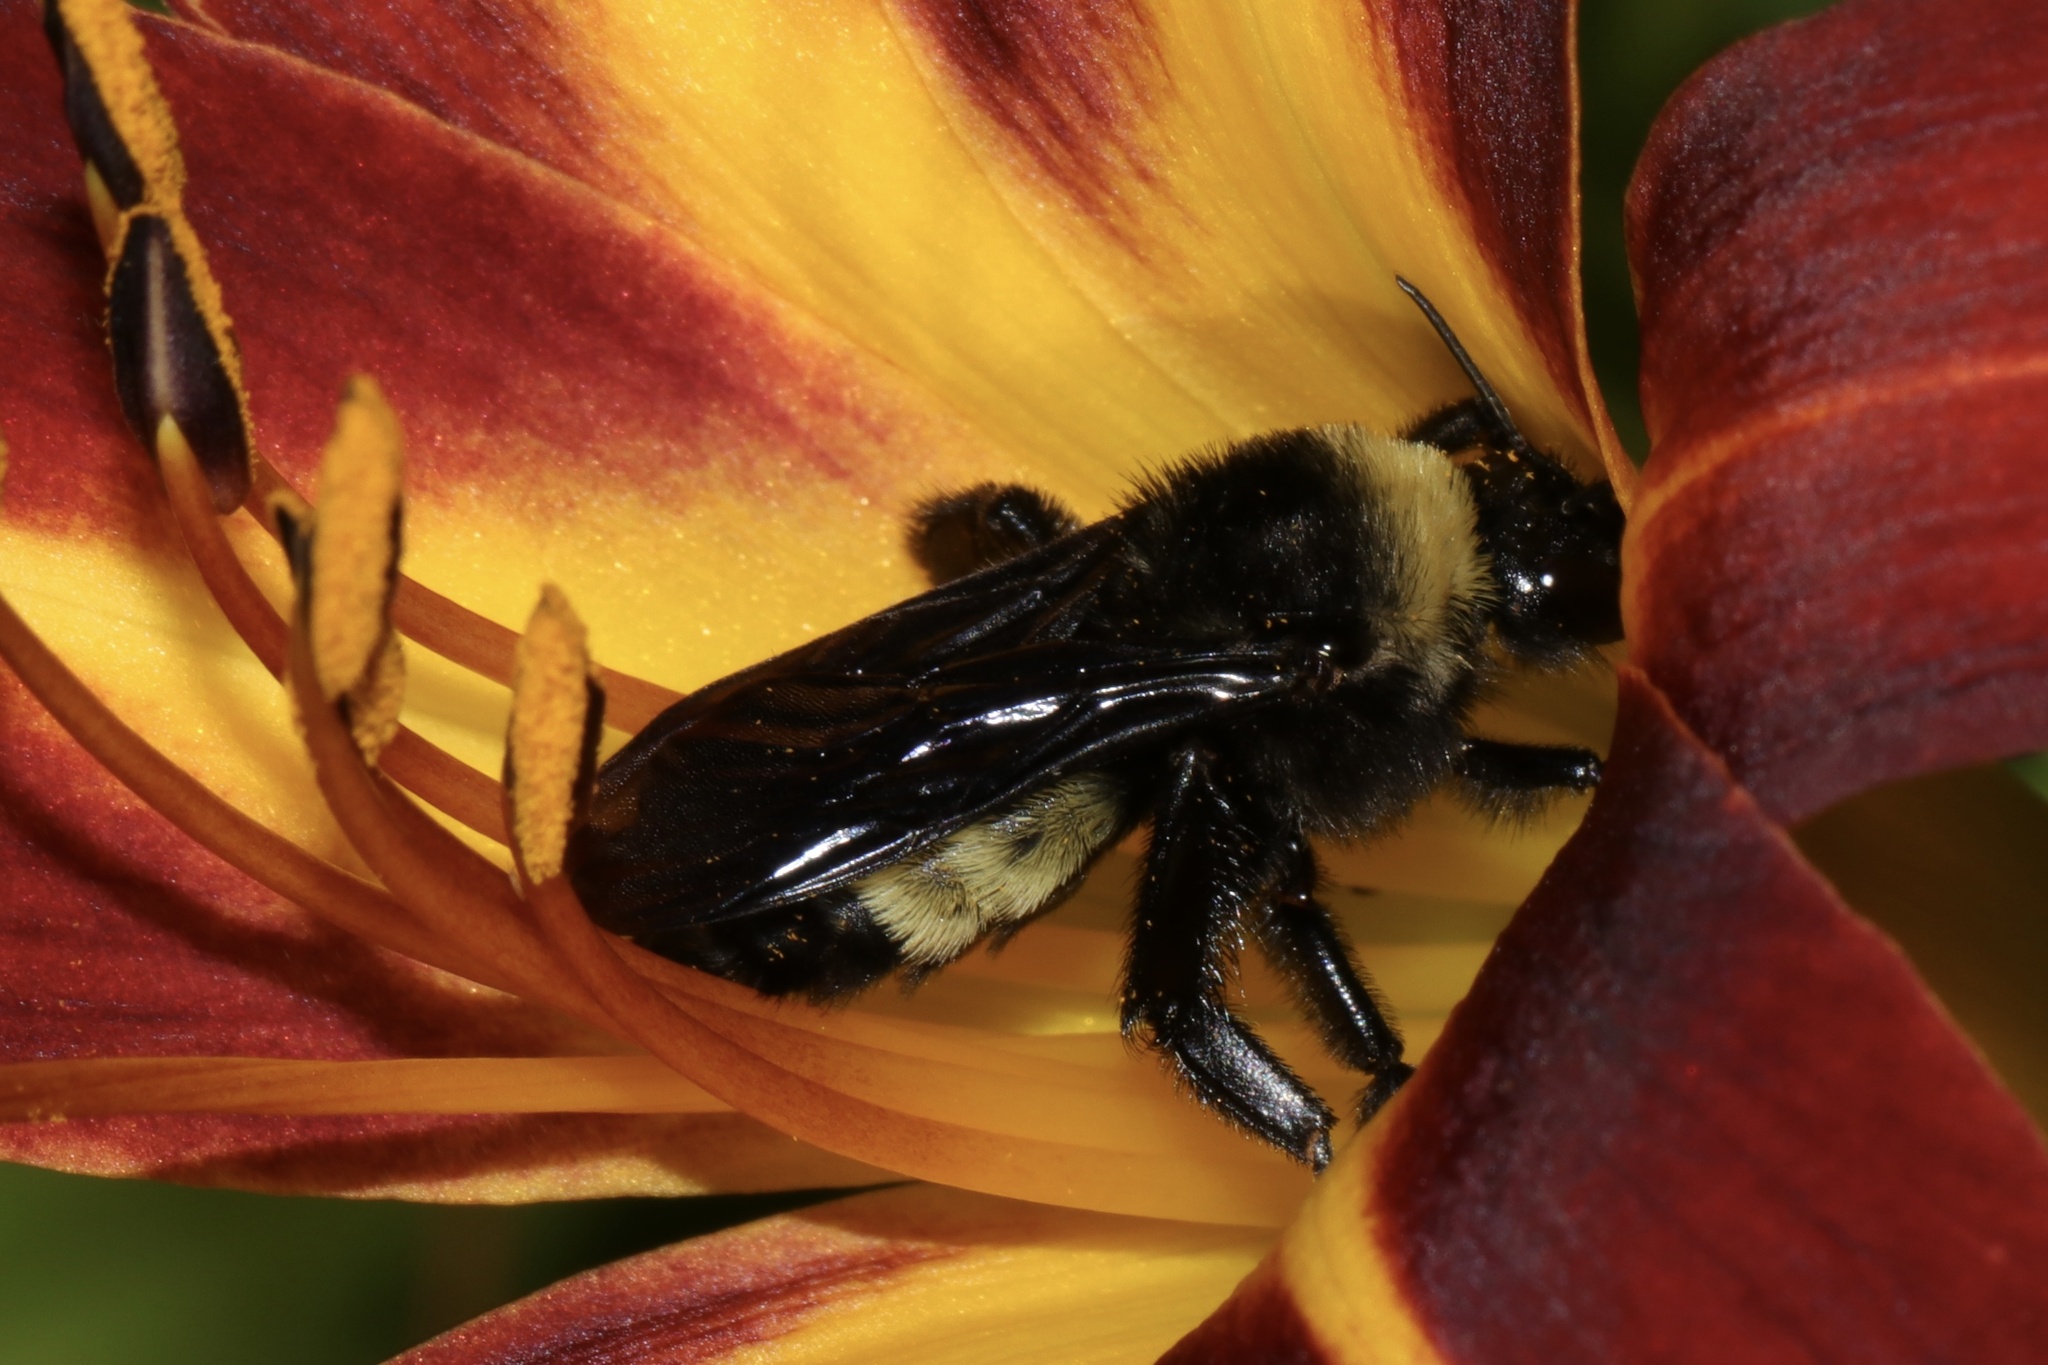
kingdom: Animalia
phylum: Arthropoda
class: Insecta
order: Hymenoptera
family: Apidae
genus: Bombus
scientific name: Bombus pensylvanicus
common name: Bumble bee
